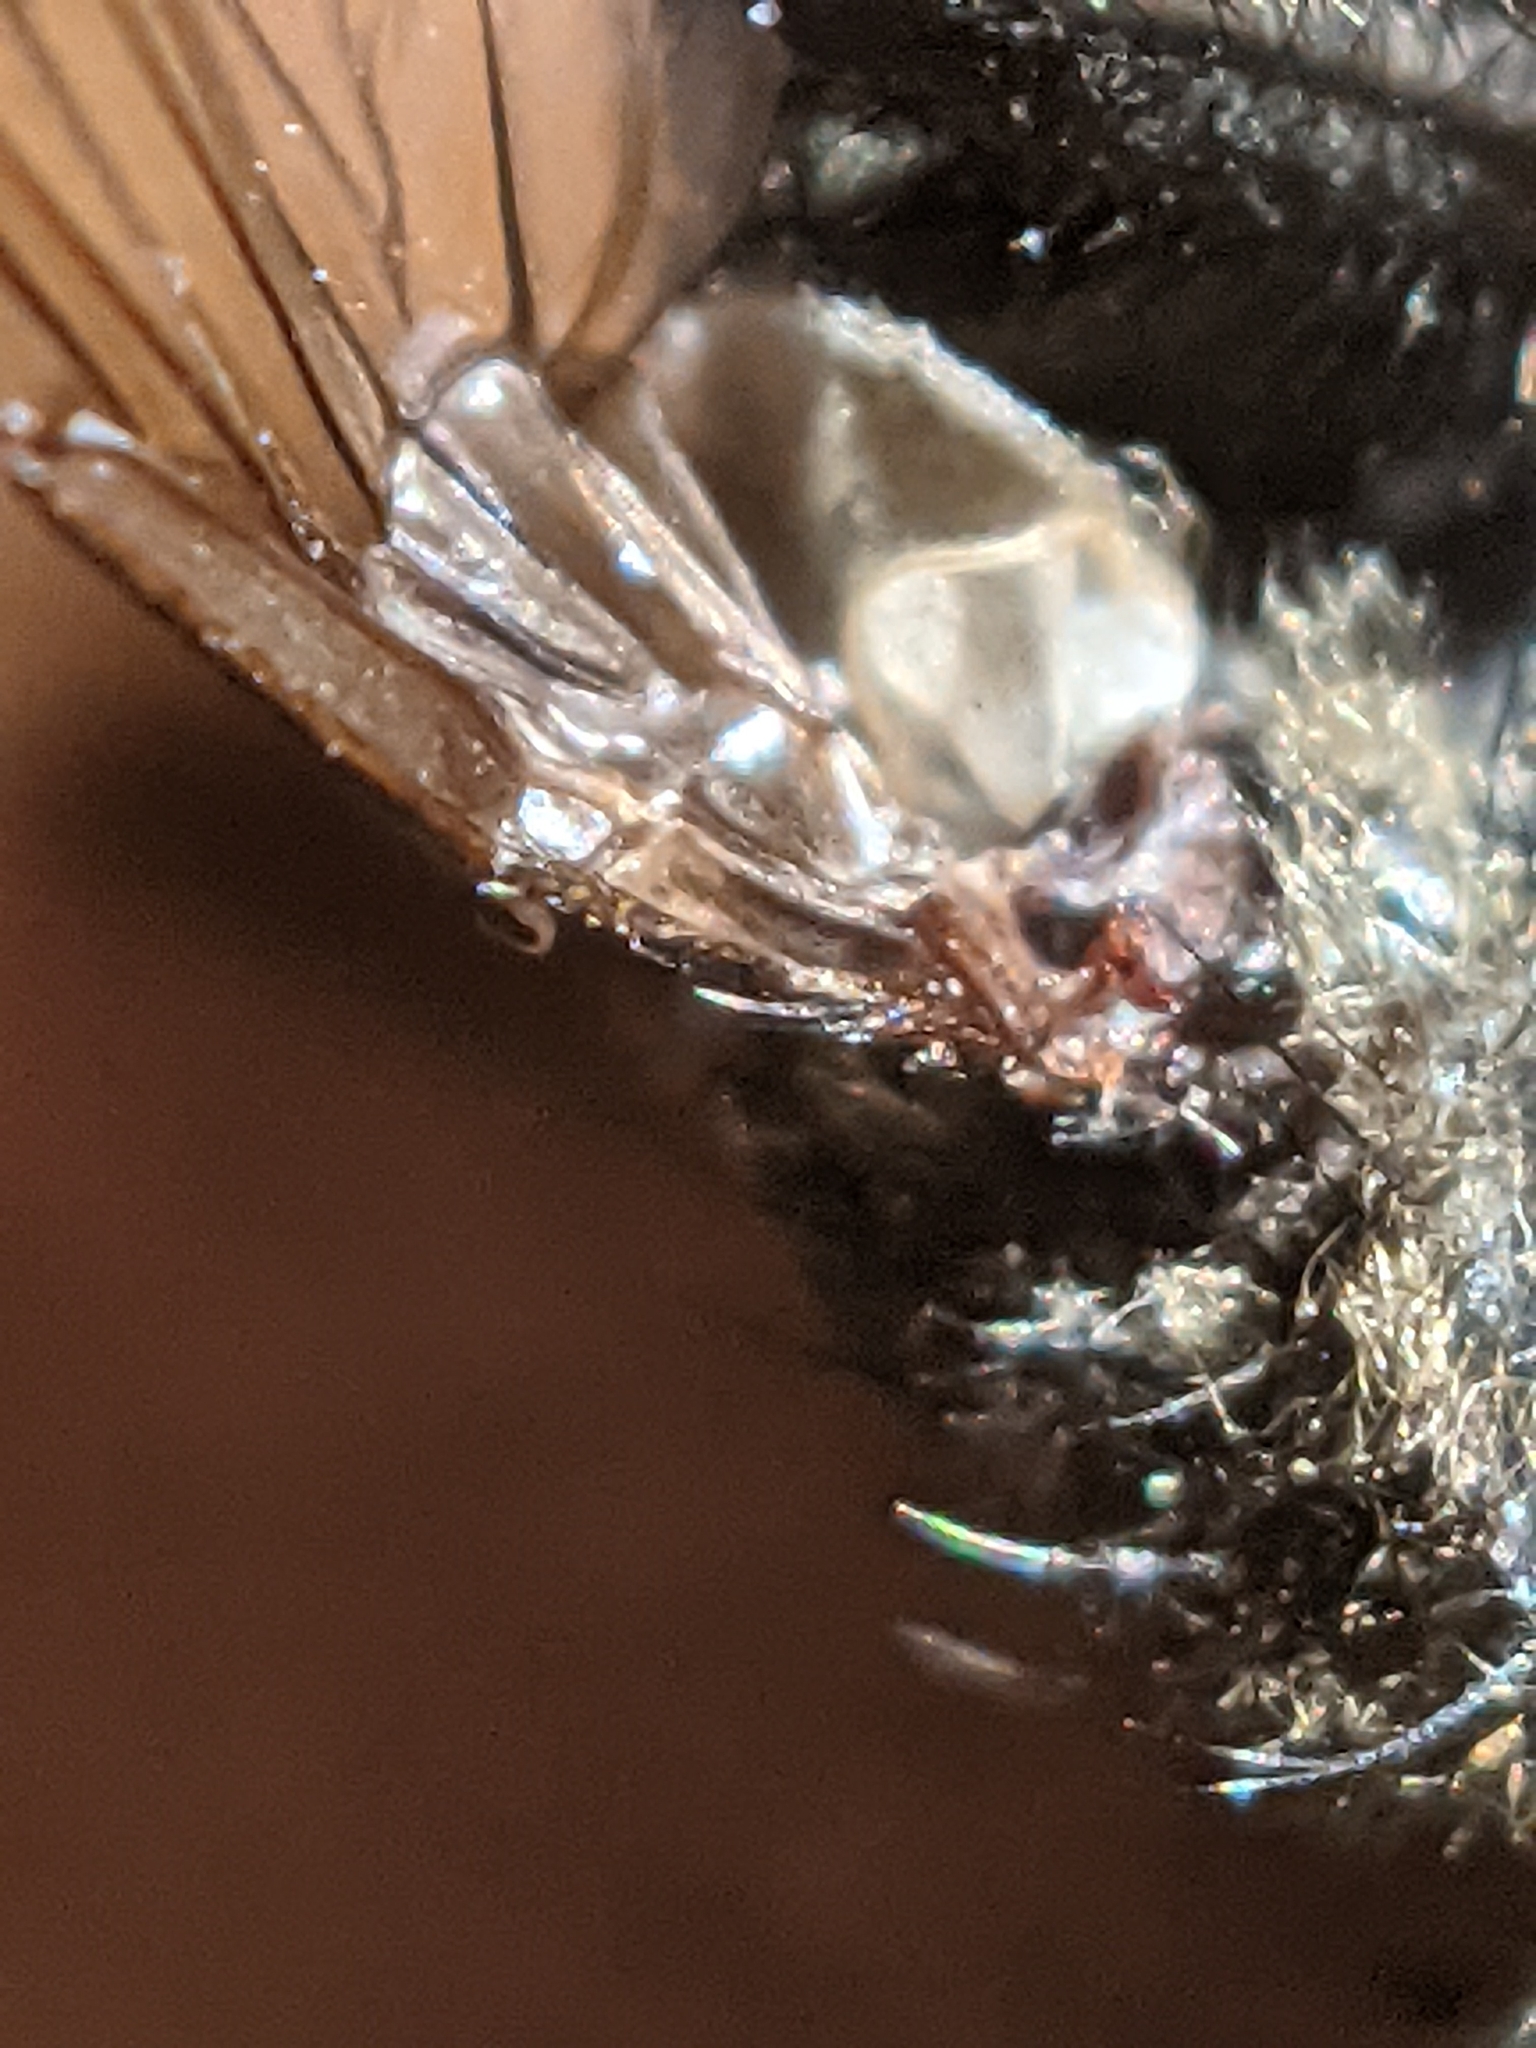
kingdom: Animalia
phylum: Arthropoda
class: Insecta
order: Diptera
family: Polleniidae
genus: Pollenia
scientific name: Pollenia
